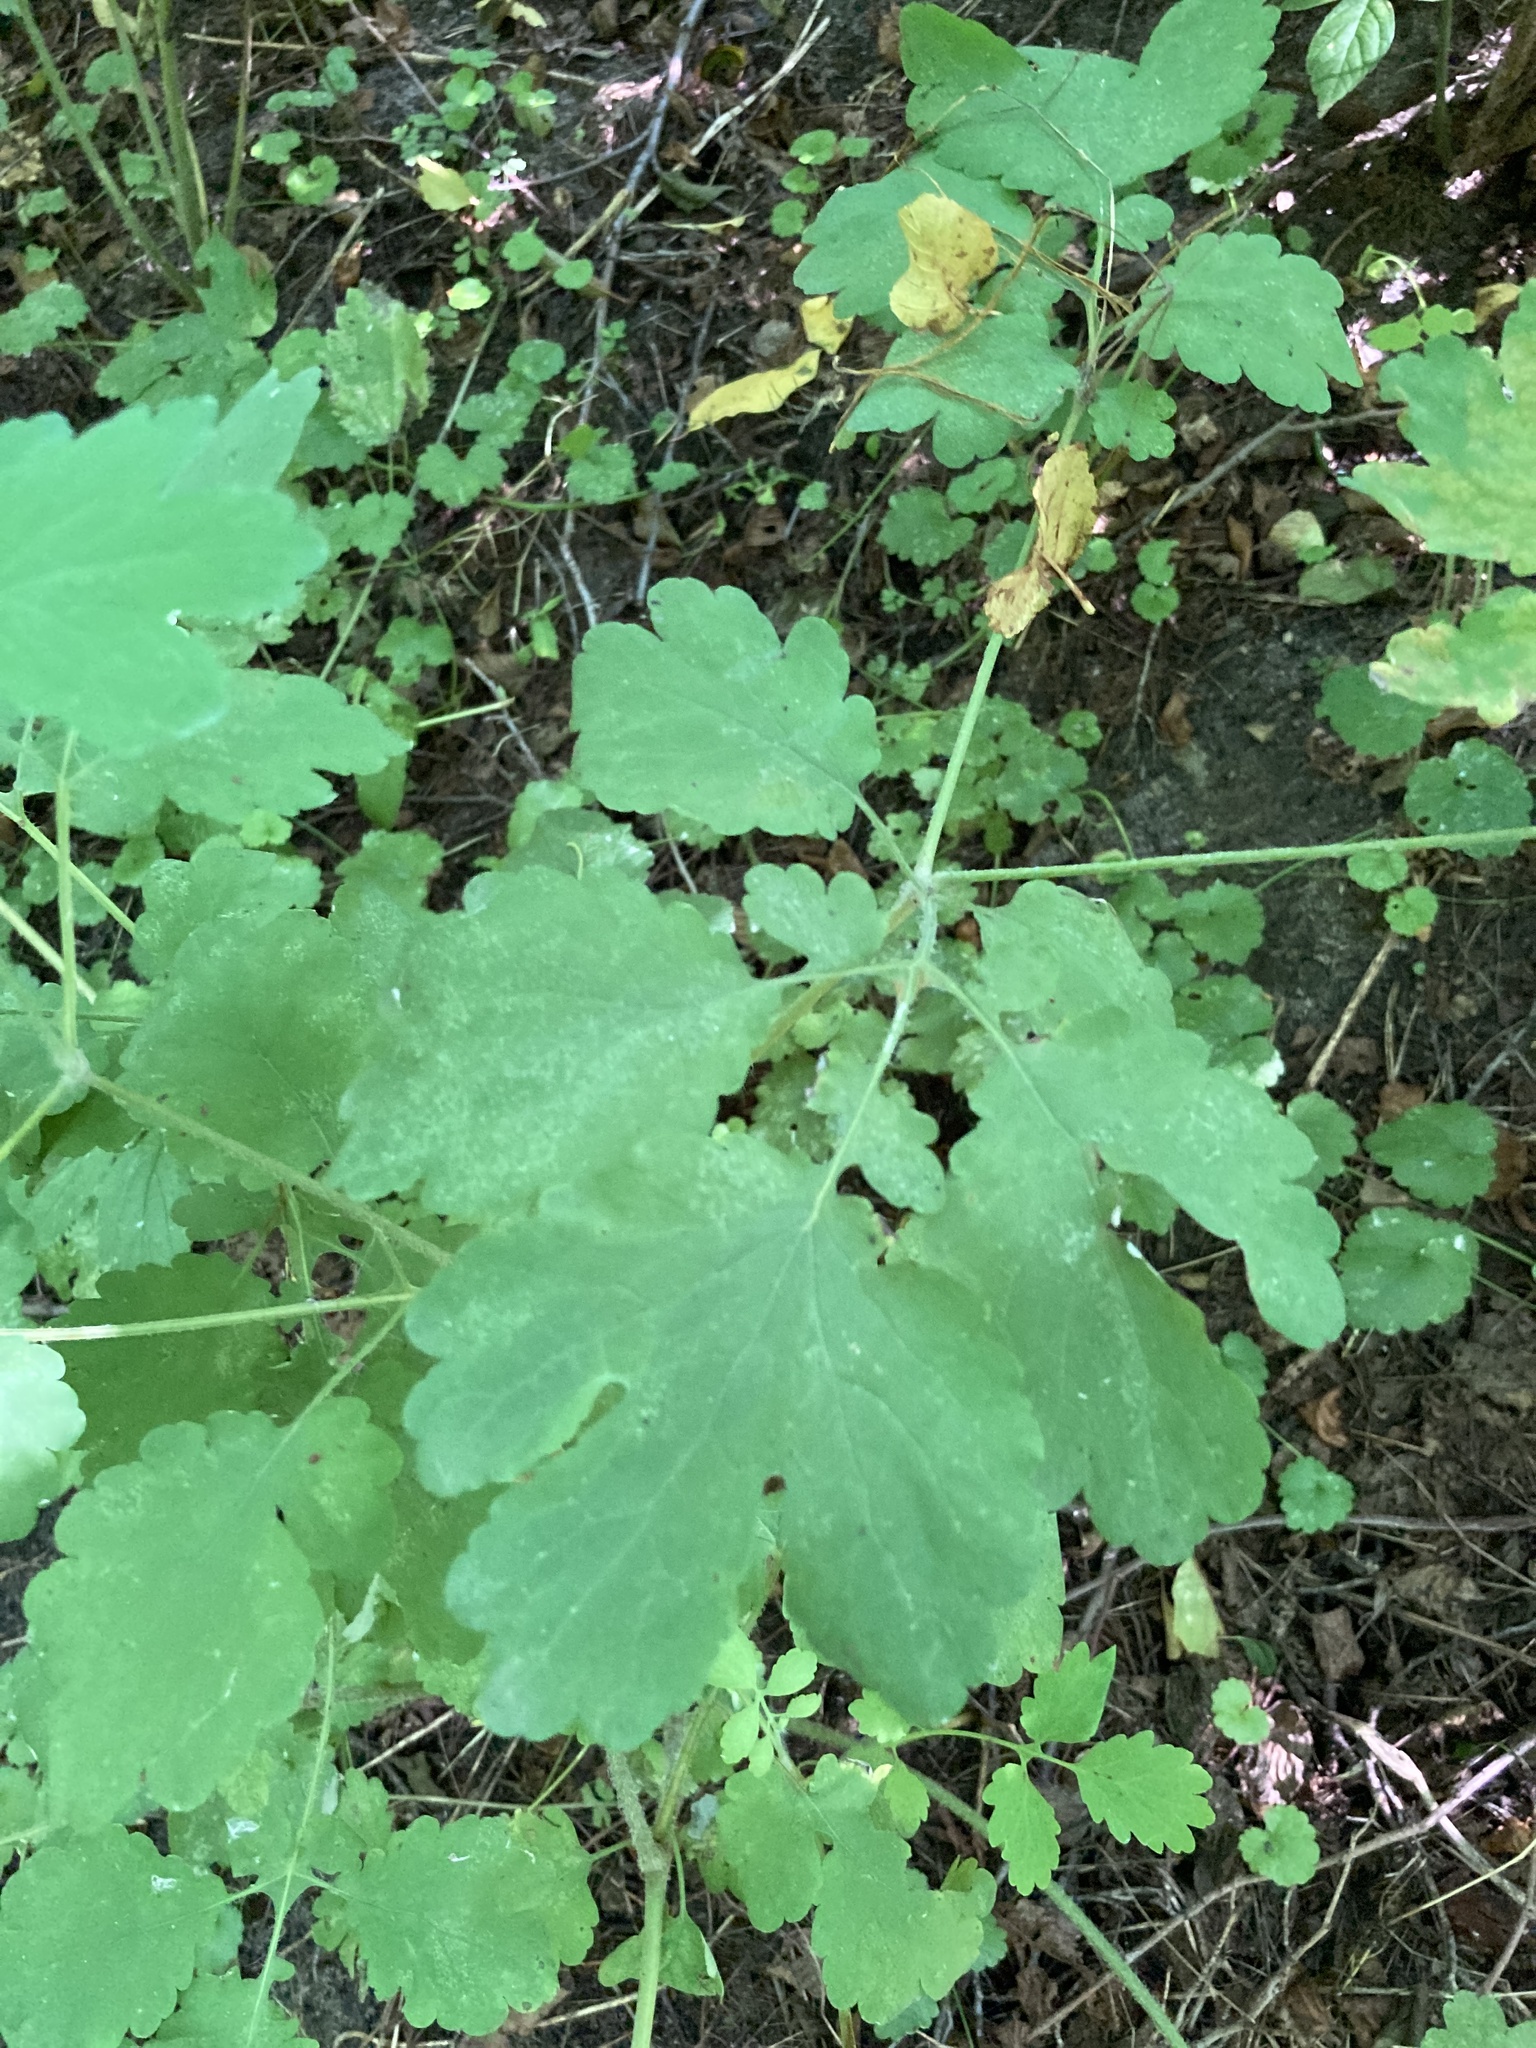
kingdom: Plantae
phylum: Tracheophyta
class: Magnoliopsida
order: Ranunculales
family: Papaveraceae
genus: Chelidonium
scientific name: Chelidonium majus
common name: Greater celandine
